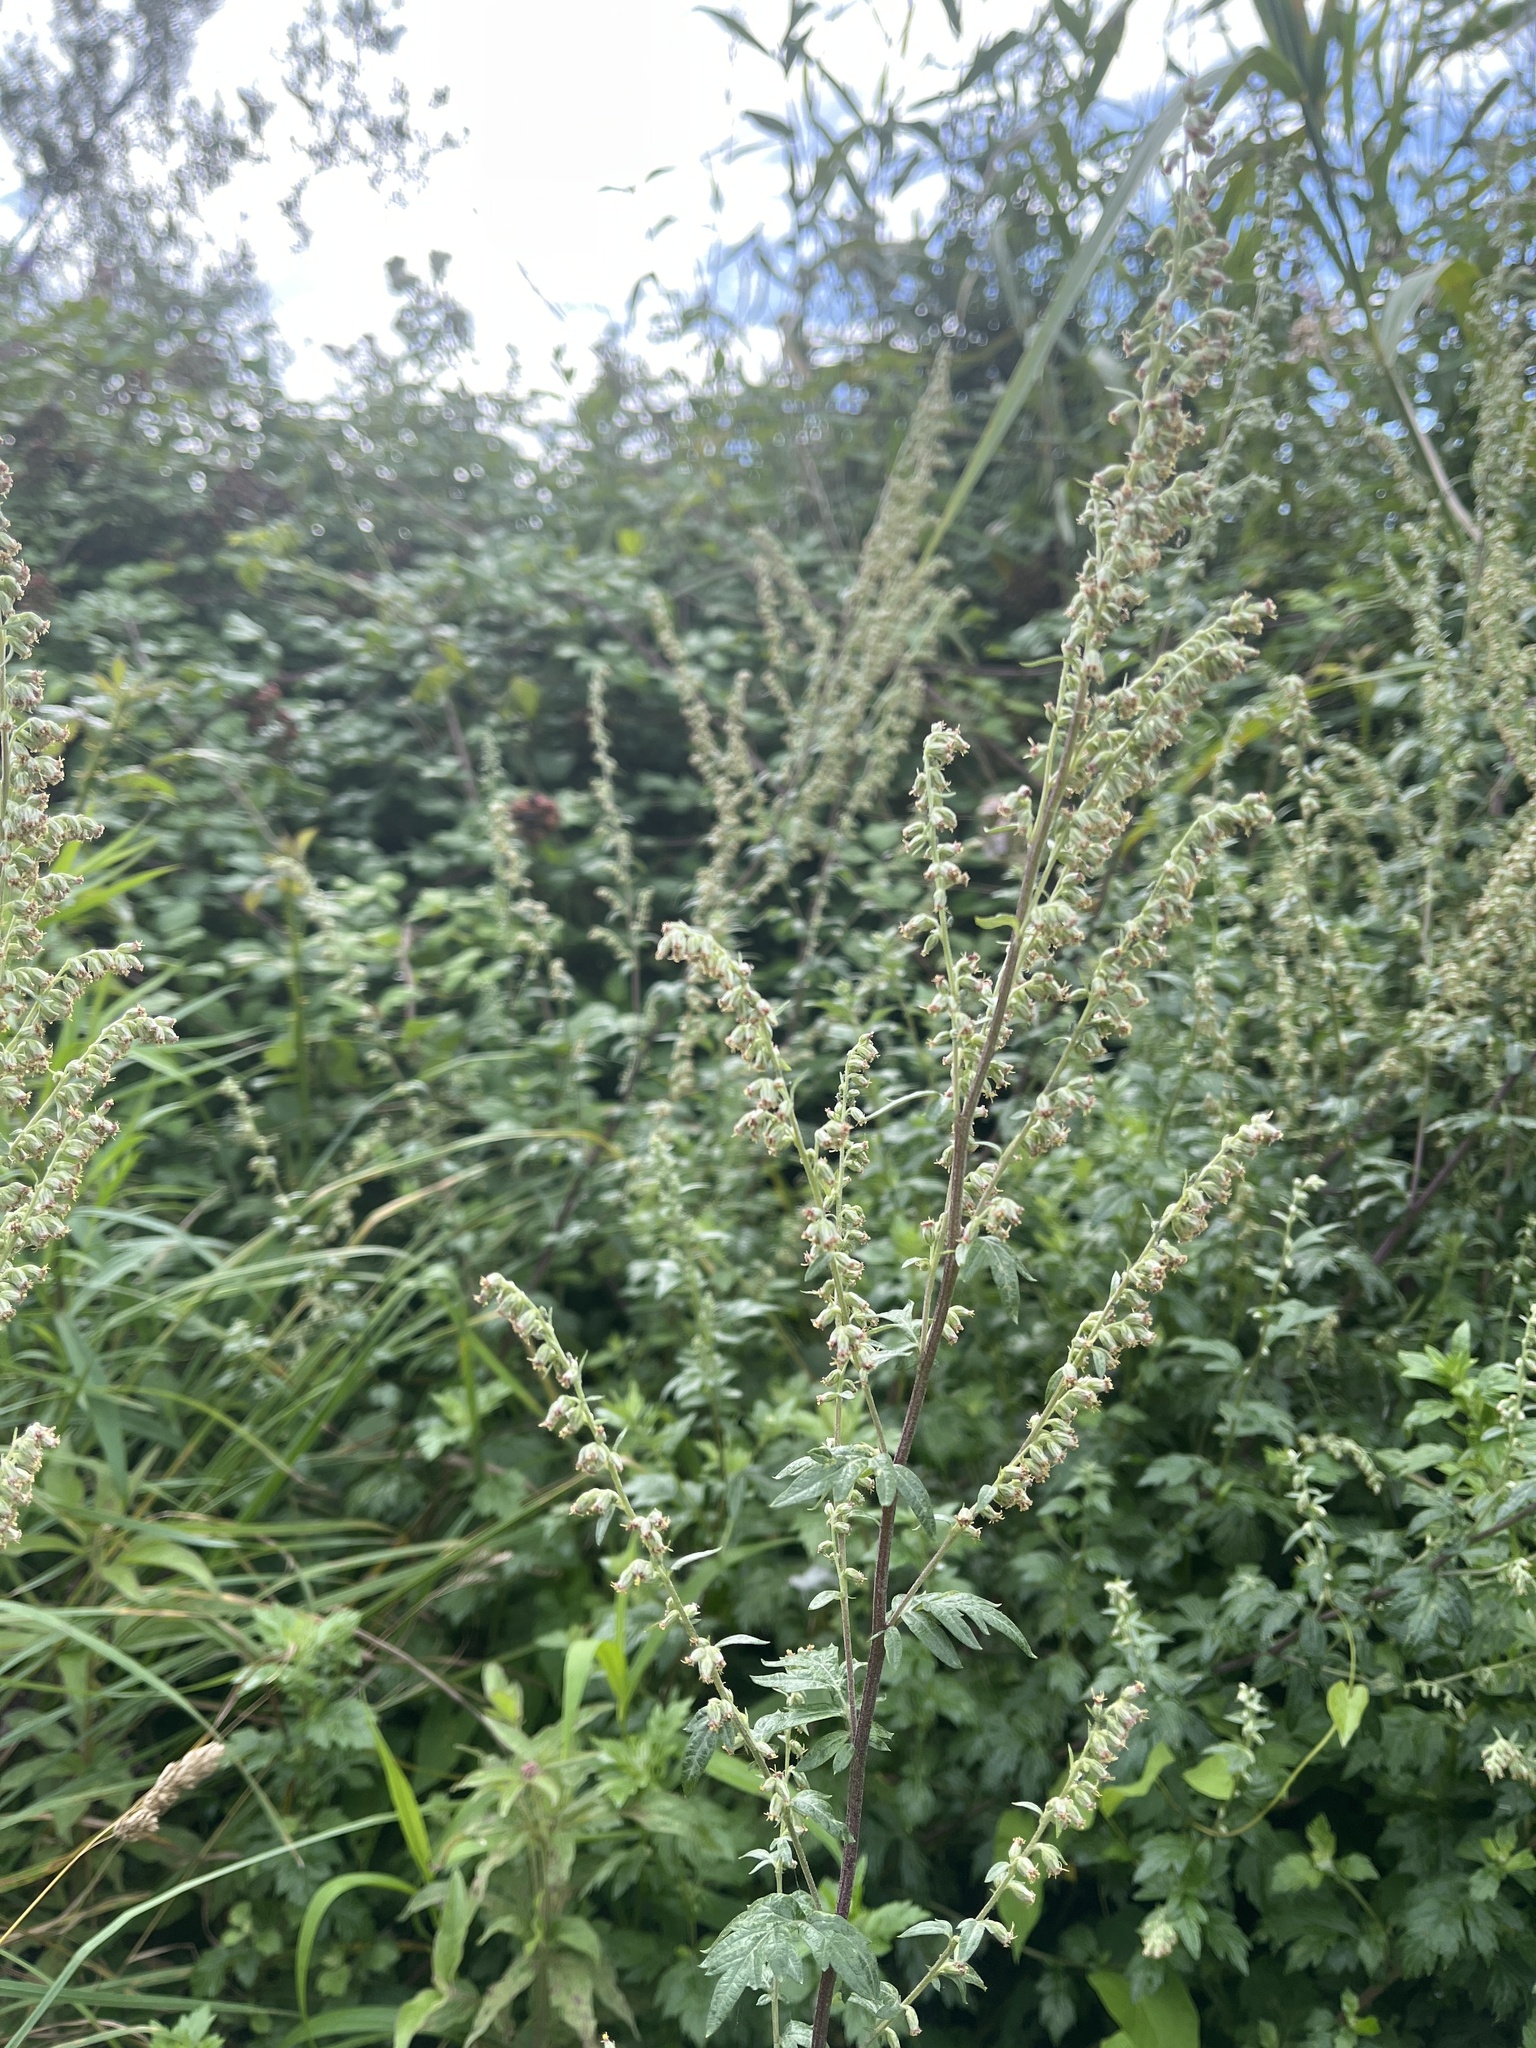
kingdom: Plantae
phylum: Tracheophyta
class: Magnoliopsida
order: Asterales
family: Asteraceae
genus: Artemisia
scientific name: Artemisia vulgaris
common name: Mugwort
